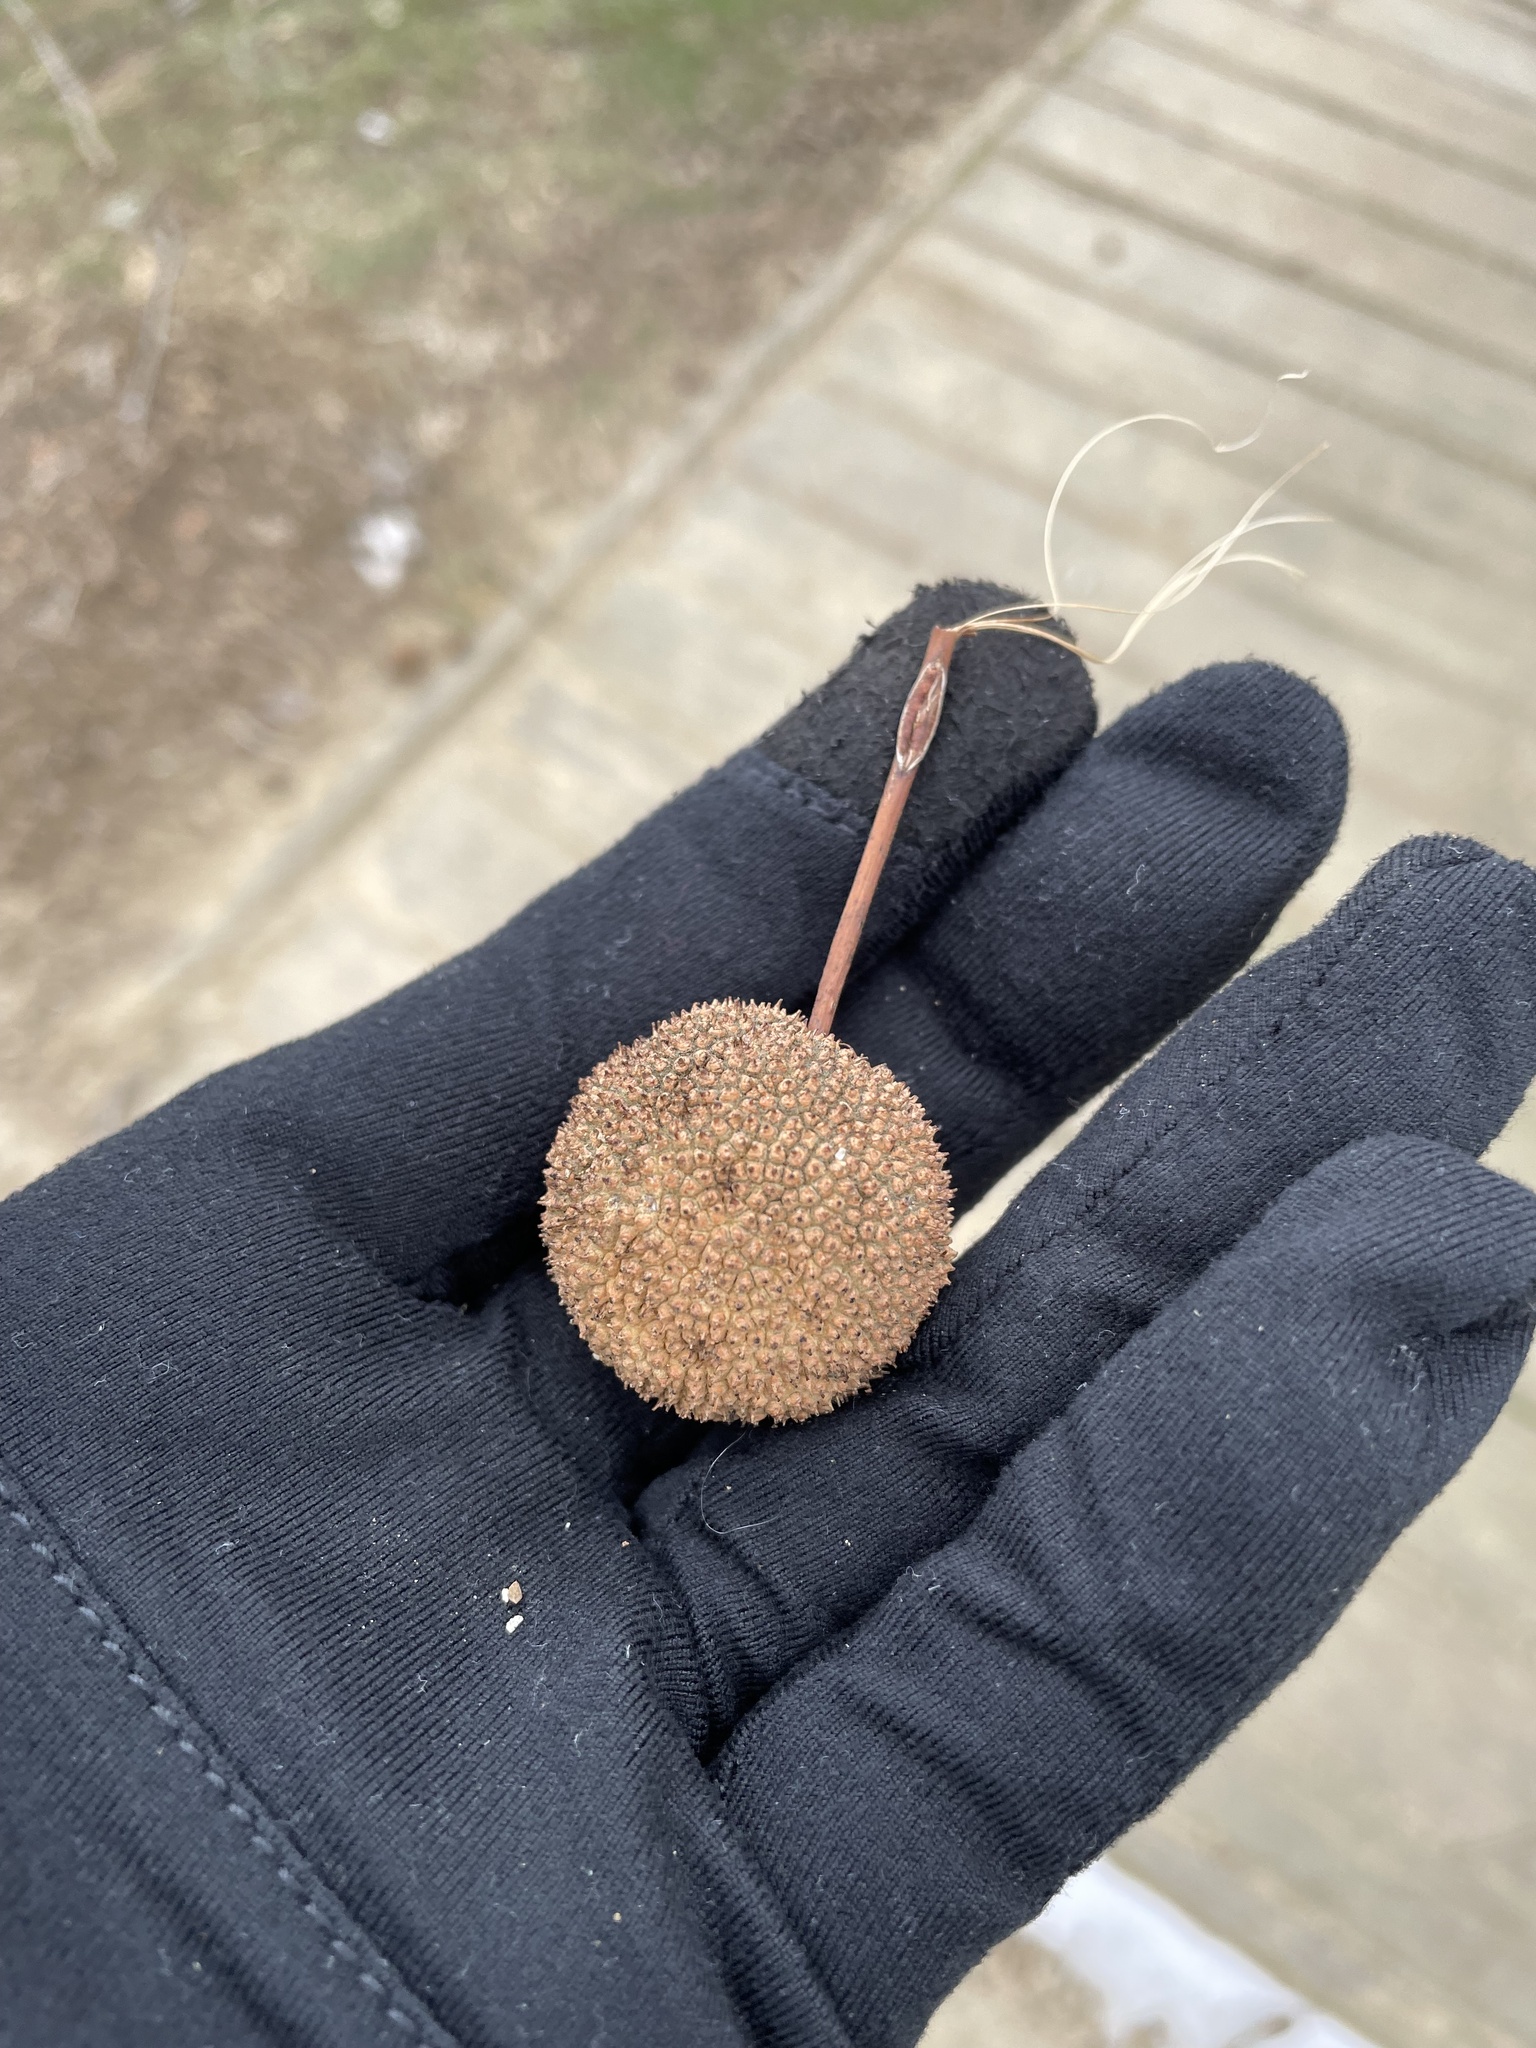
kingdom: Plantae
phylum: Tracheophyta
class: Magnoliopsida
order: Proteales
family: Platanaceae
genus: Platanus
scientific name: Platanus occidentalis
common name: American sycamore
